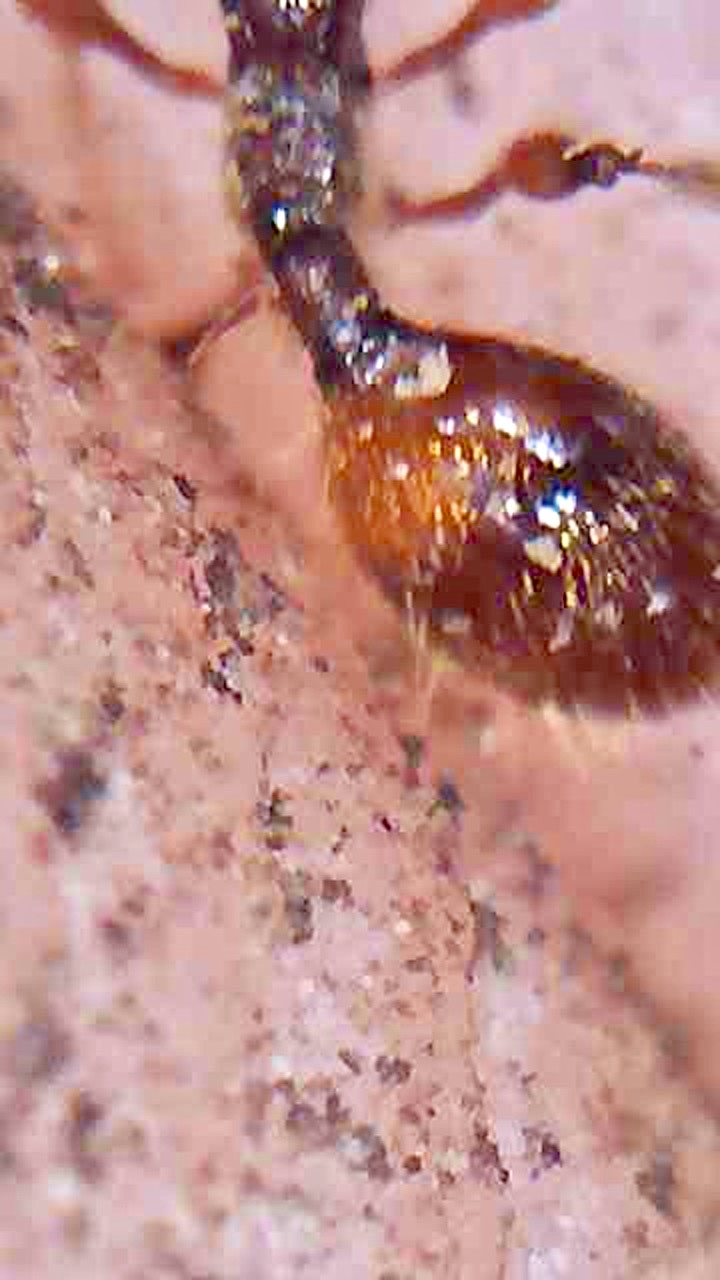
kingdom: Animalia
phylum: Arthropoda
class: Insecta
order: Hymenoptera
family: Diapriidae
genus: Betyla
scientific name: Betyla
